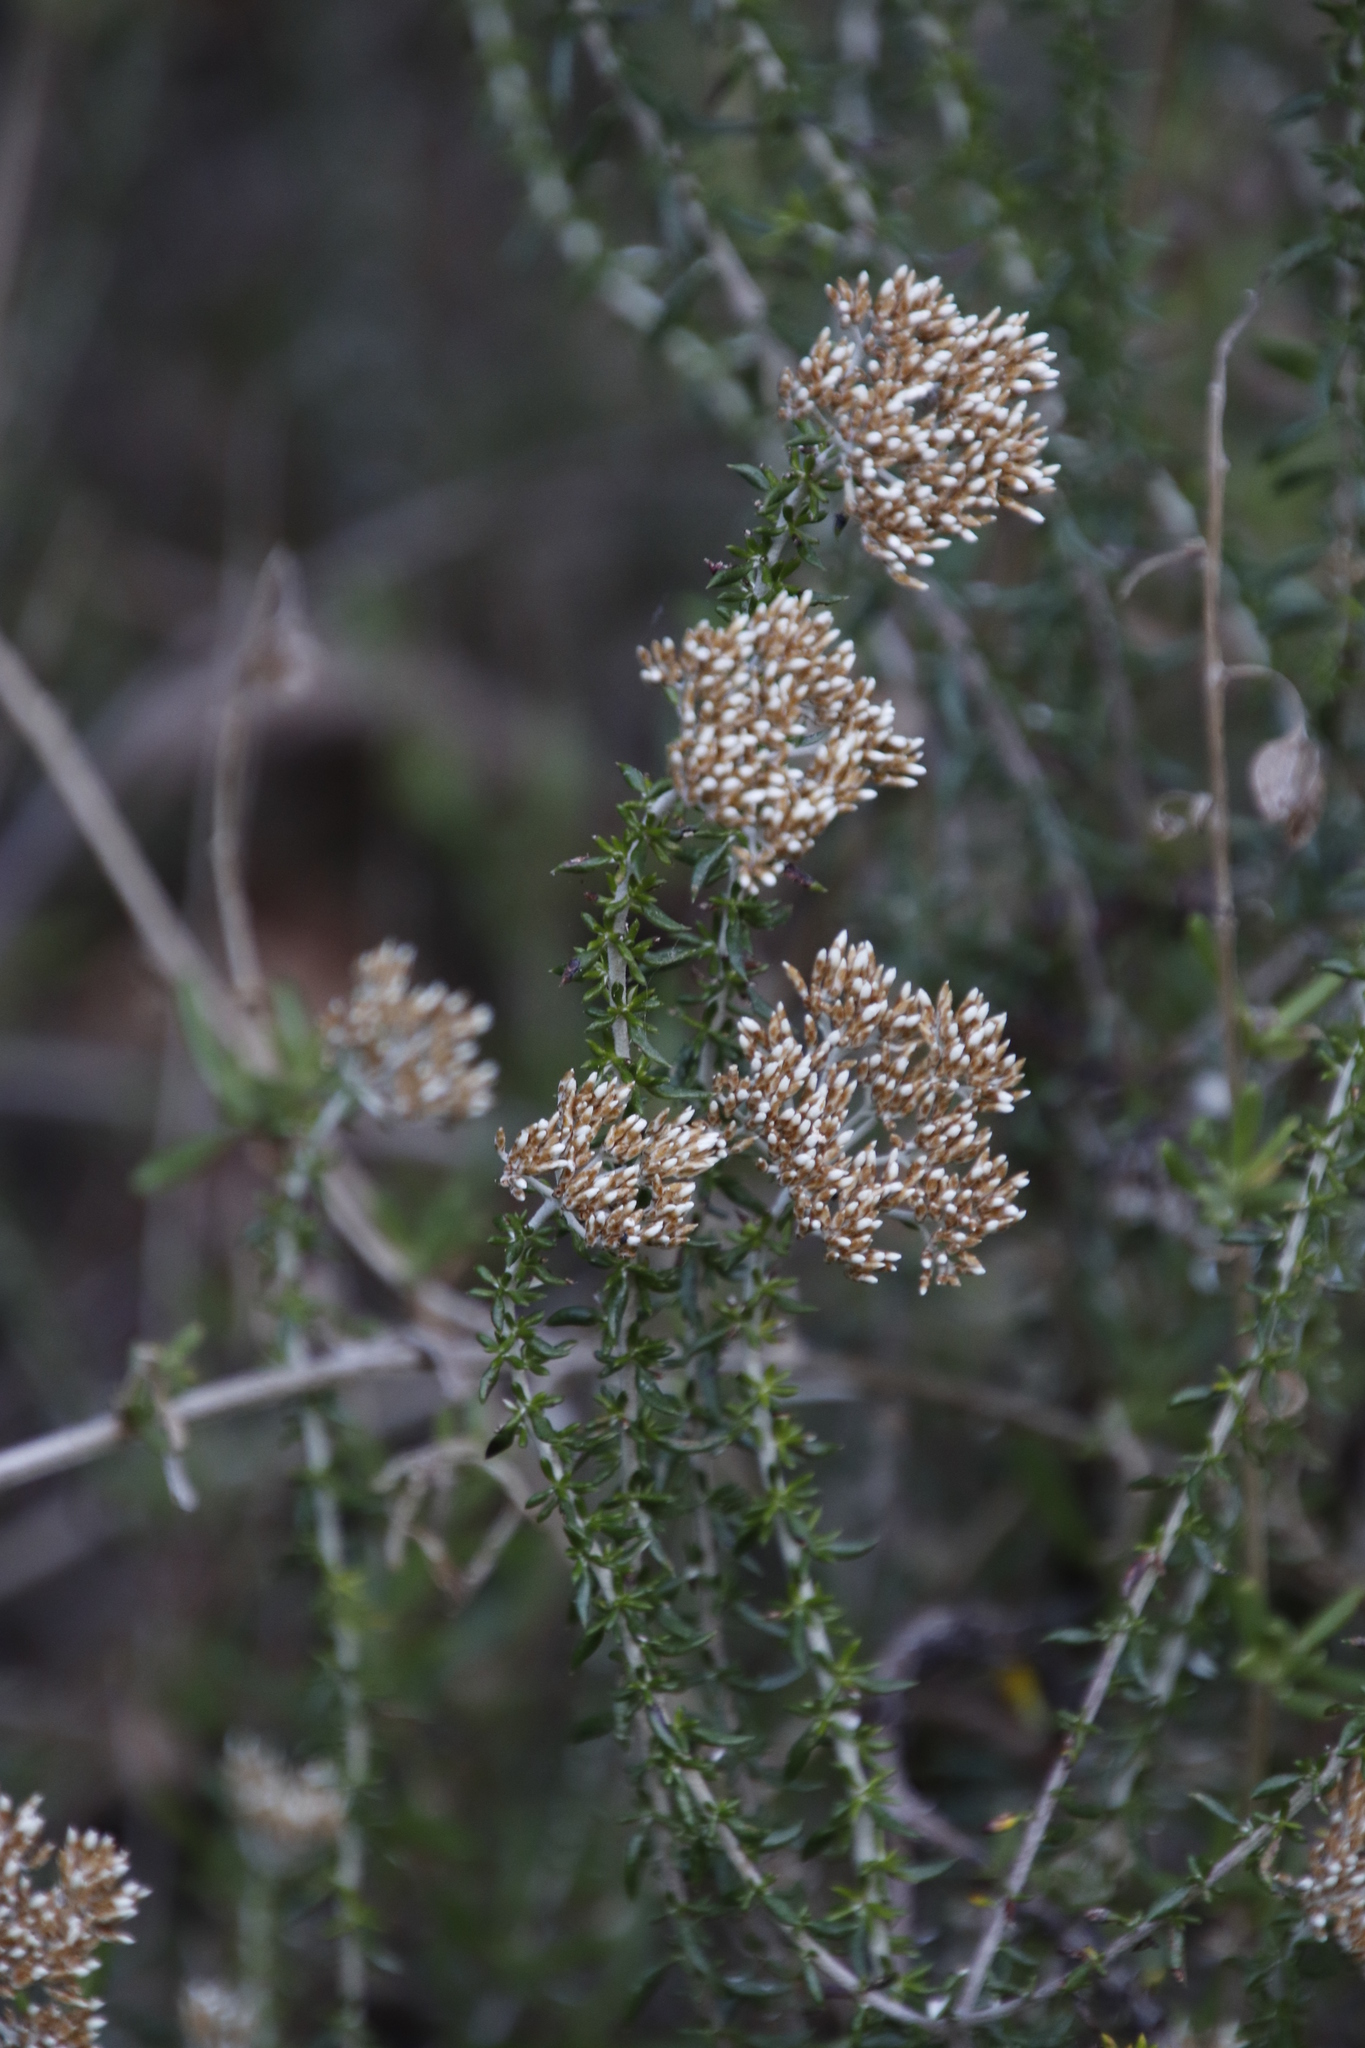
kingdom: Plantae
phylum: Tracheophyta
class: Magnoliopsida
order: Asterales
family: Asteraceae
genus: Metalasia
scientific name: Metalasia densa
